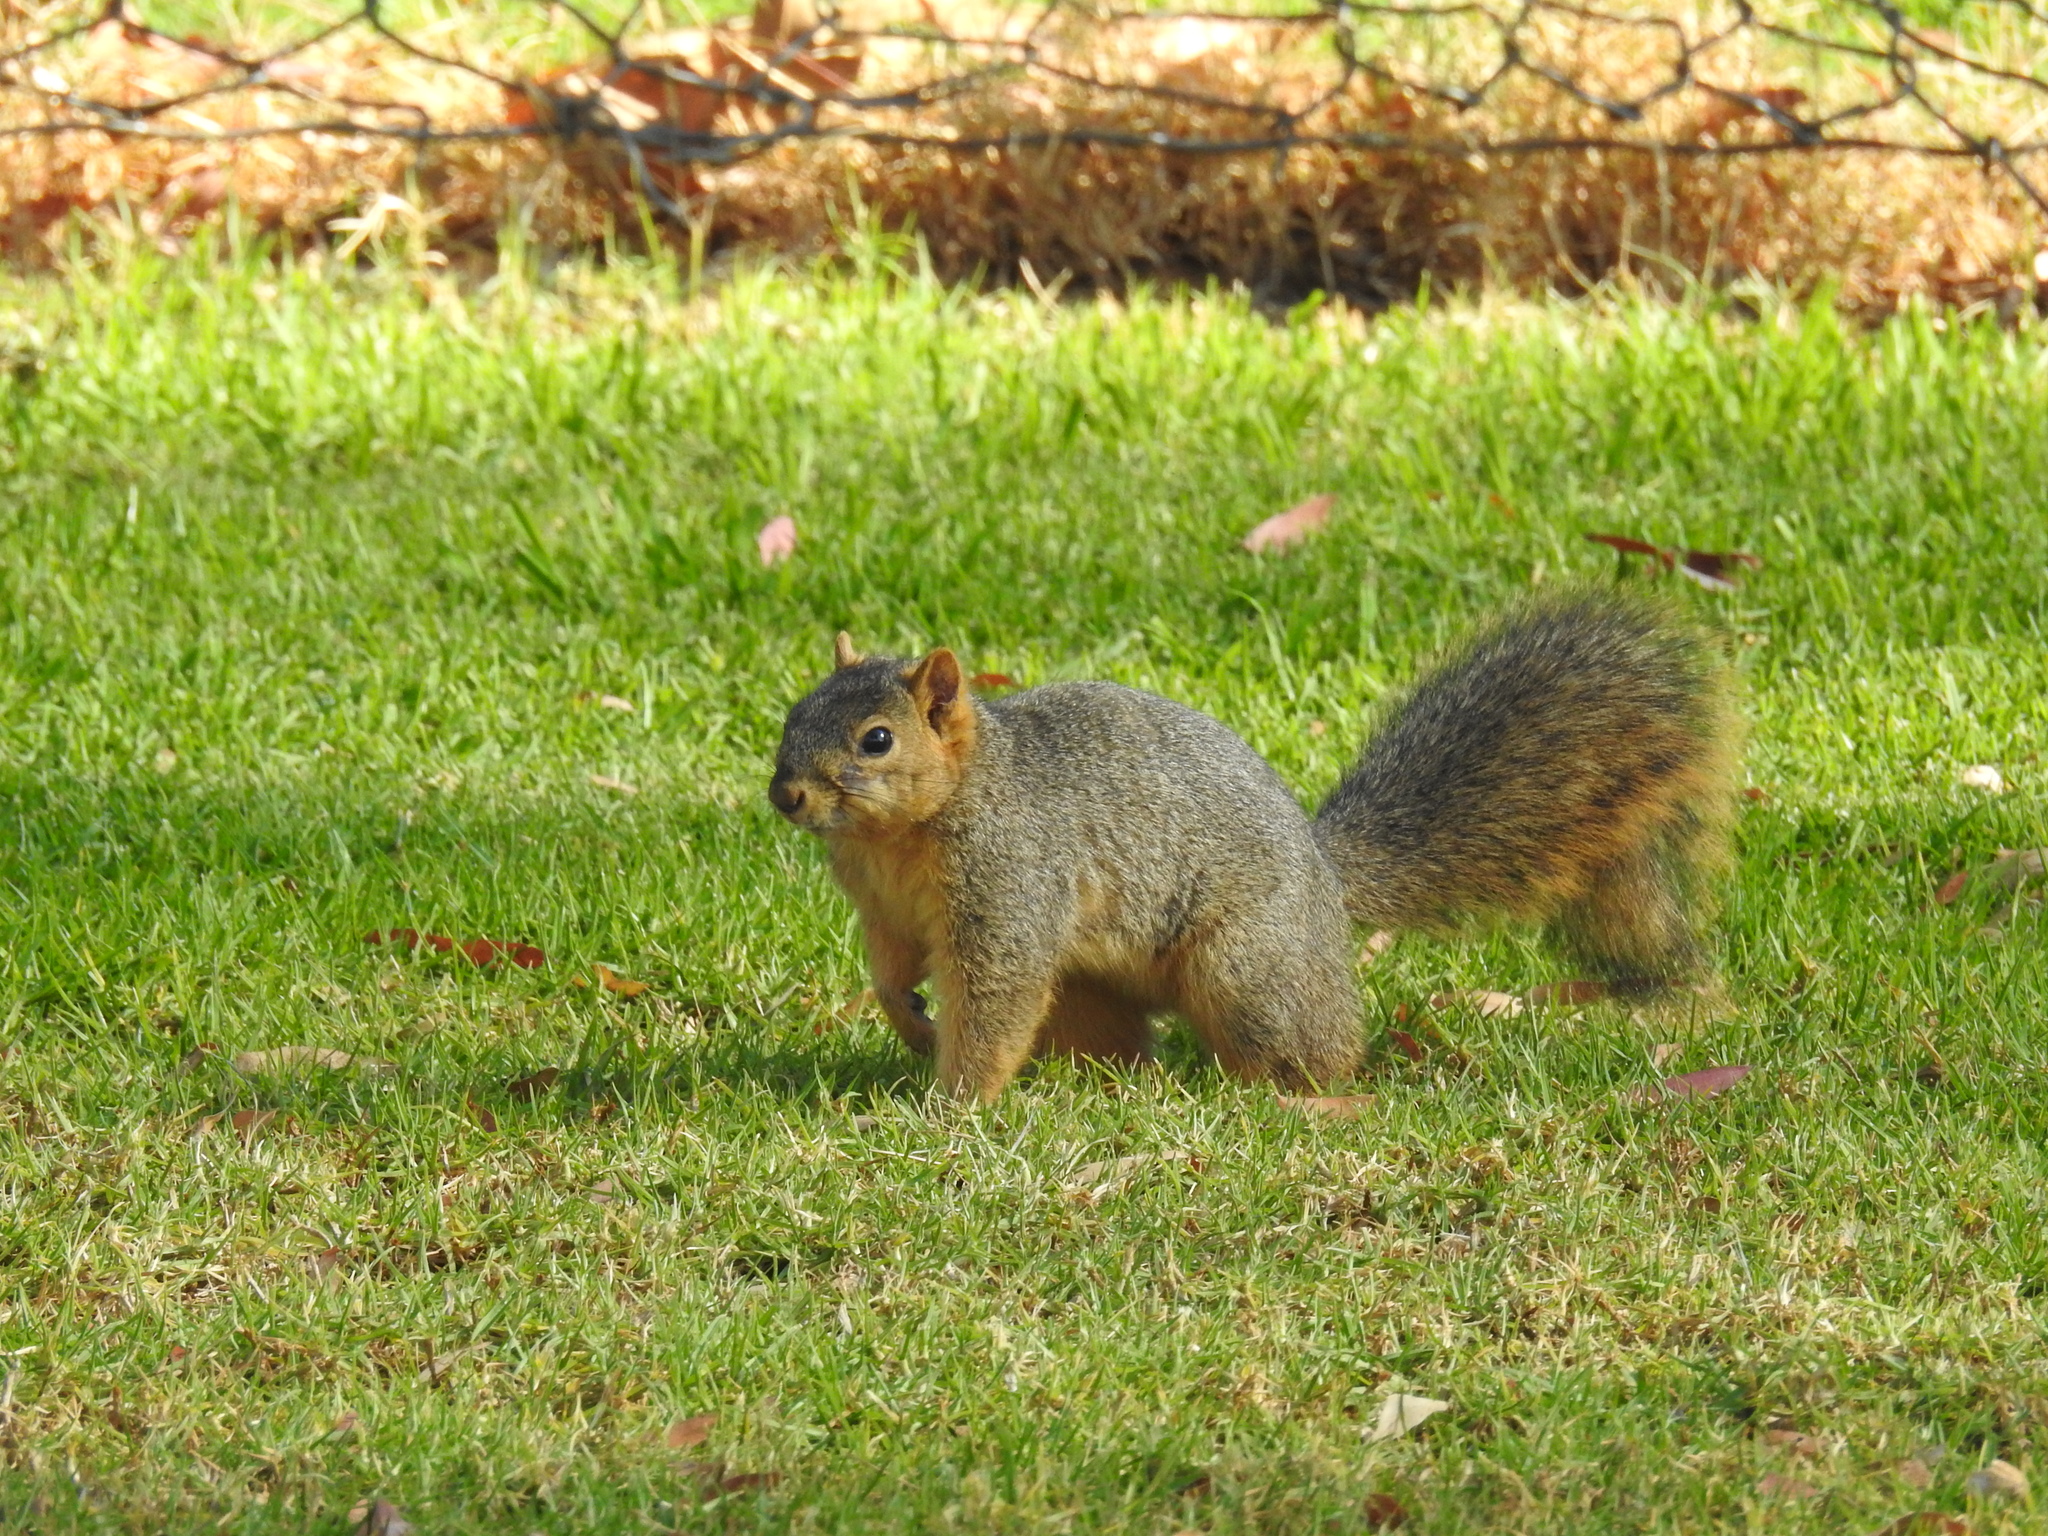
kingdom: Animalia
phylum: Chordata
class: Mammalia
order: Rodentia
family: Sciuridae
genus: Sciurus
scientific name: Sciurus niger
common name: Fox squirrel
